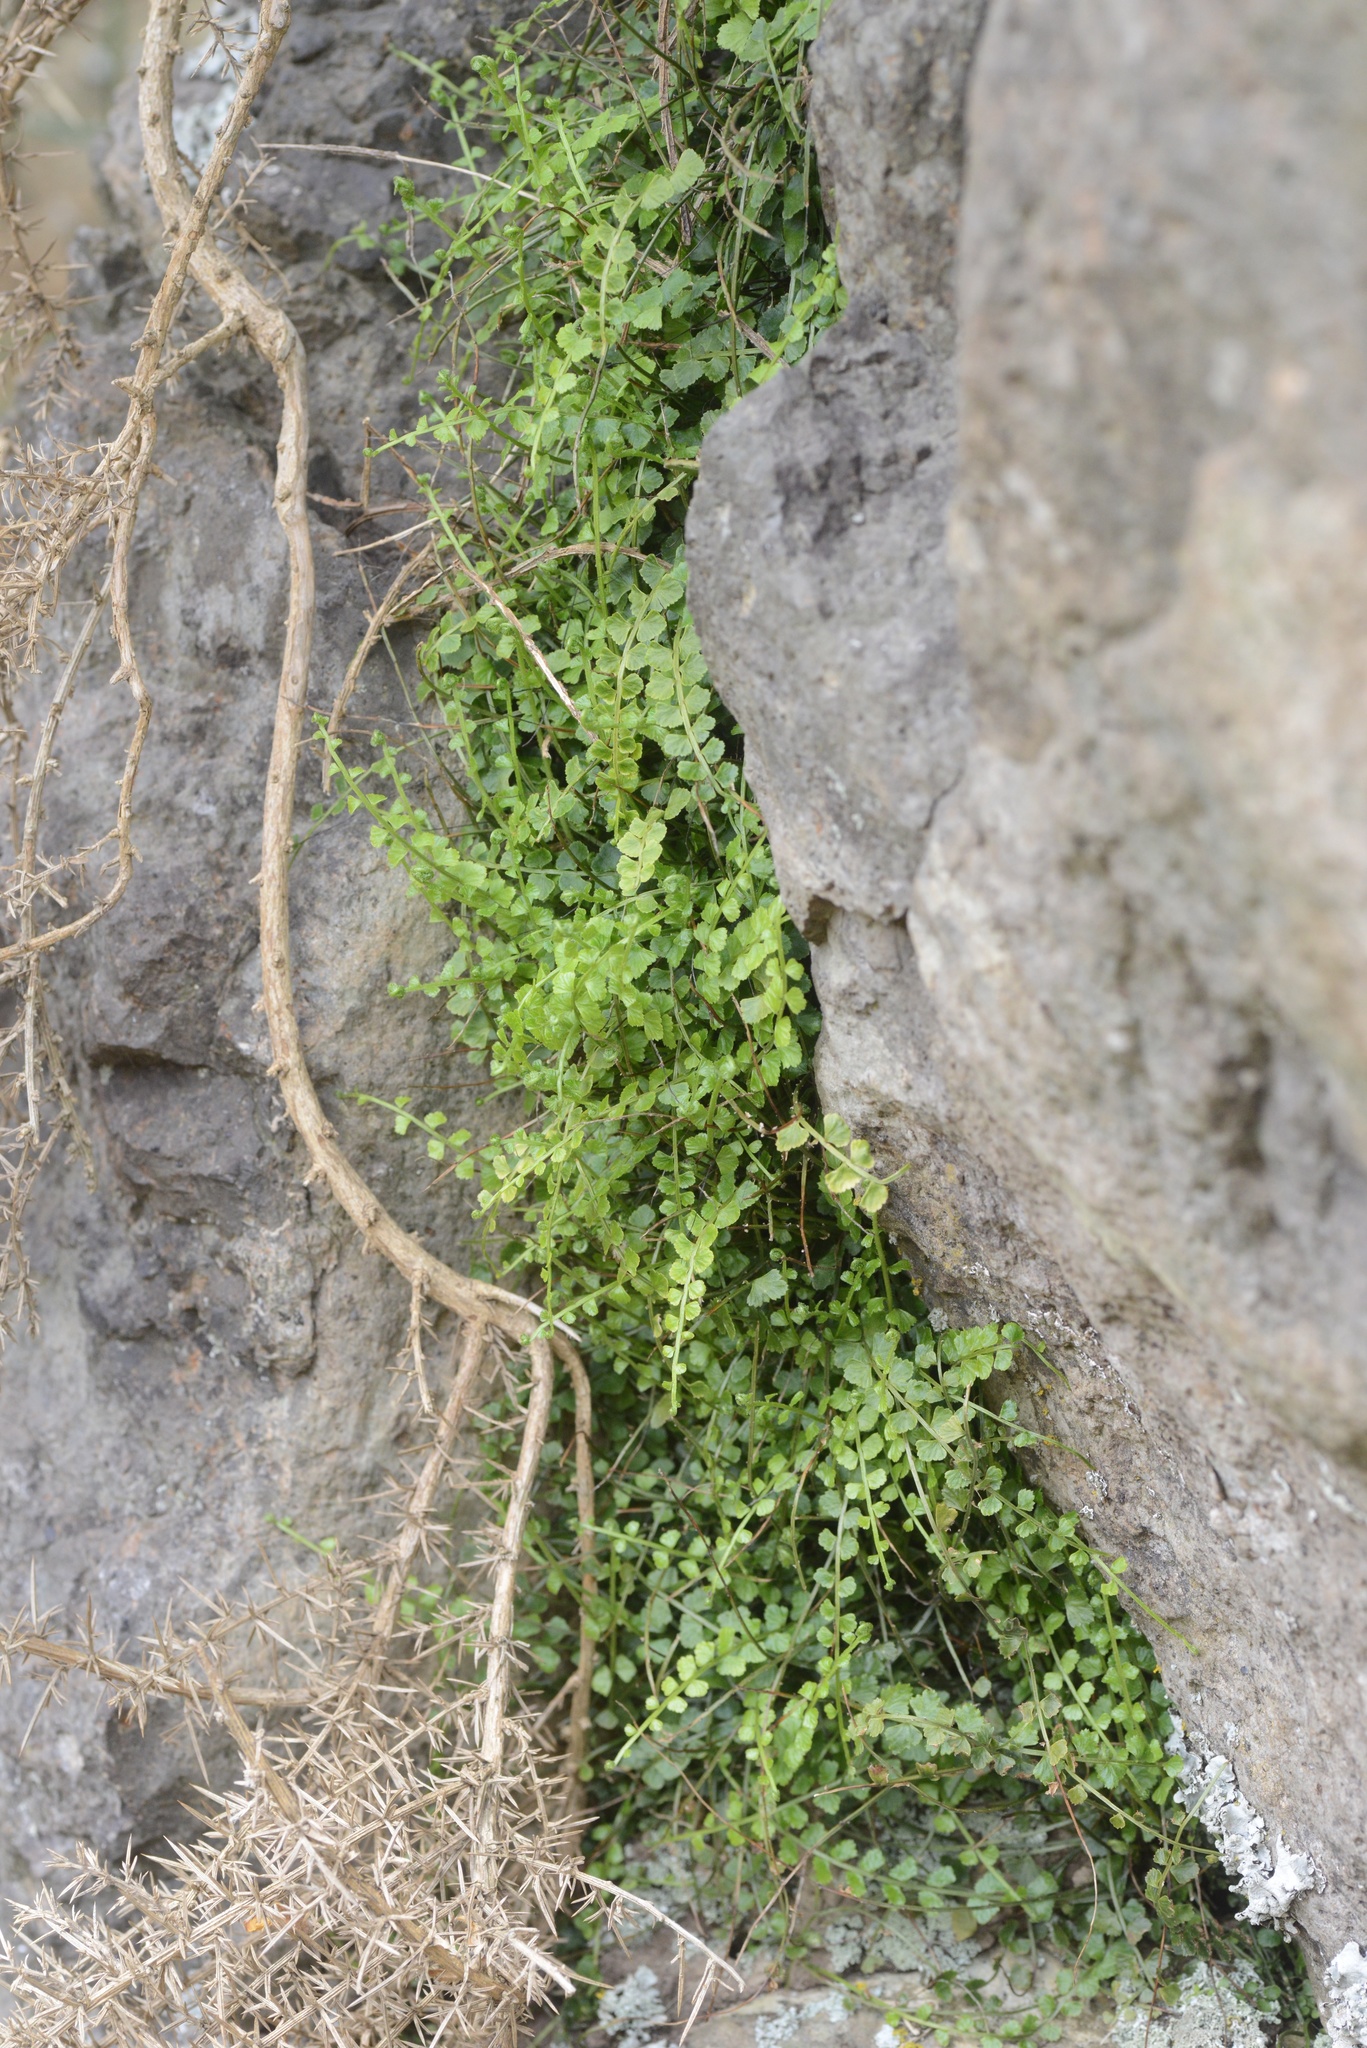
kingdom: Plantae
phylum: Tracheophyta
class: Polypodiopsida
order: Polypodiales
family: Aspleniaceae
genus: Asplenium
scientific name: Asplenium flabellifolium
